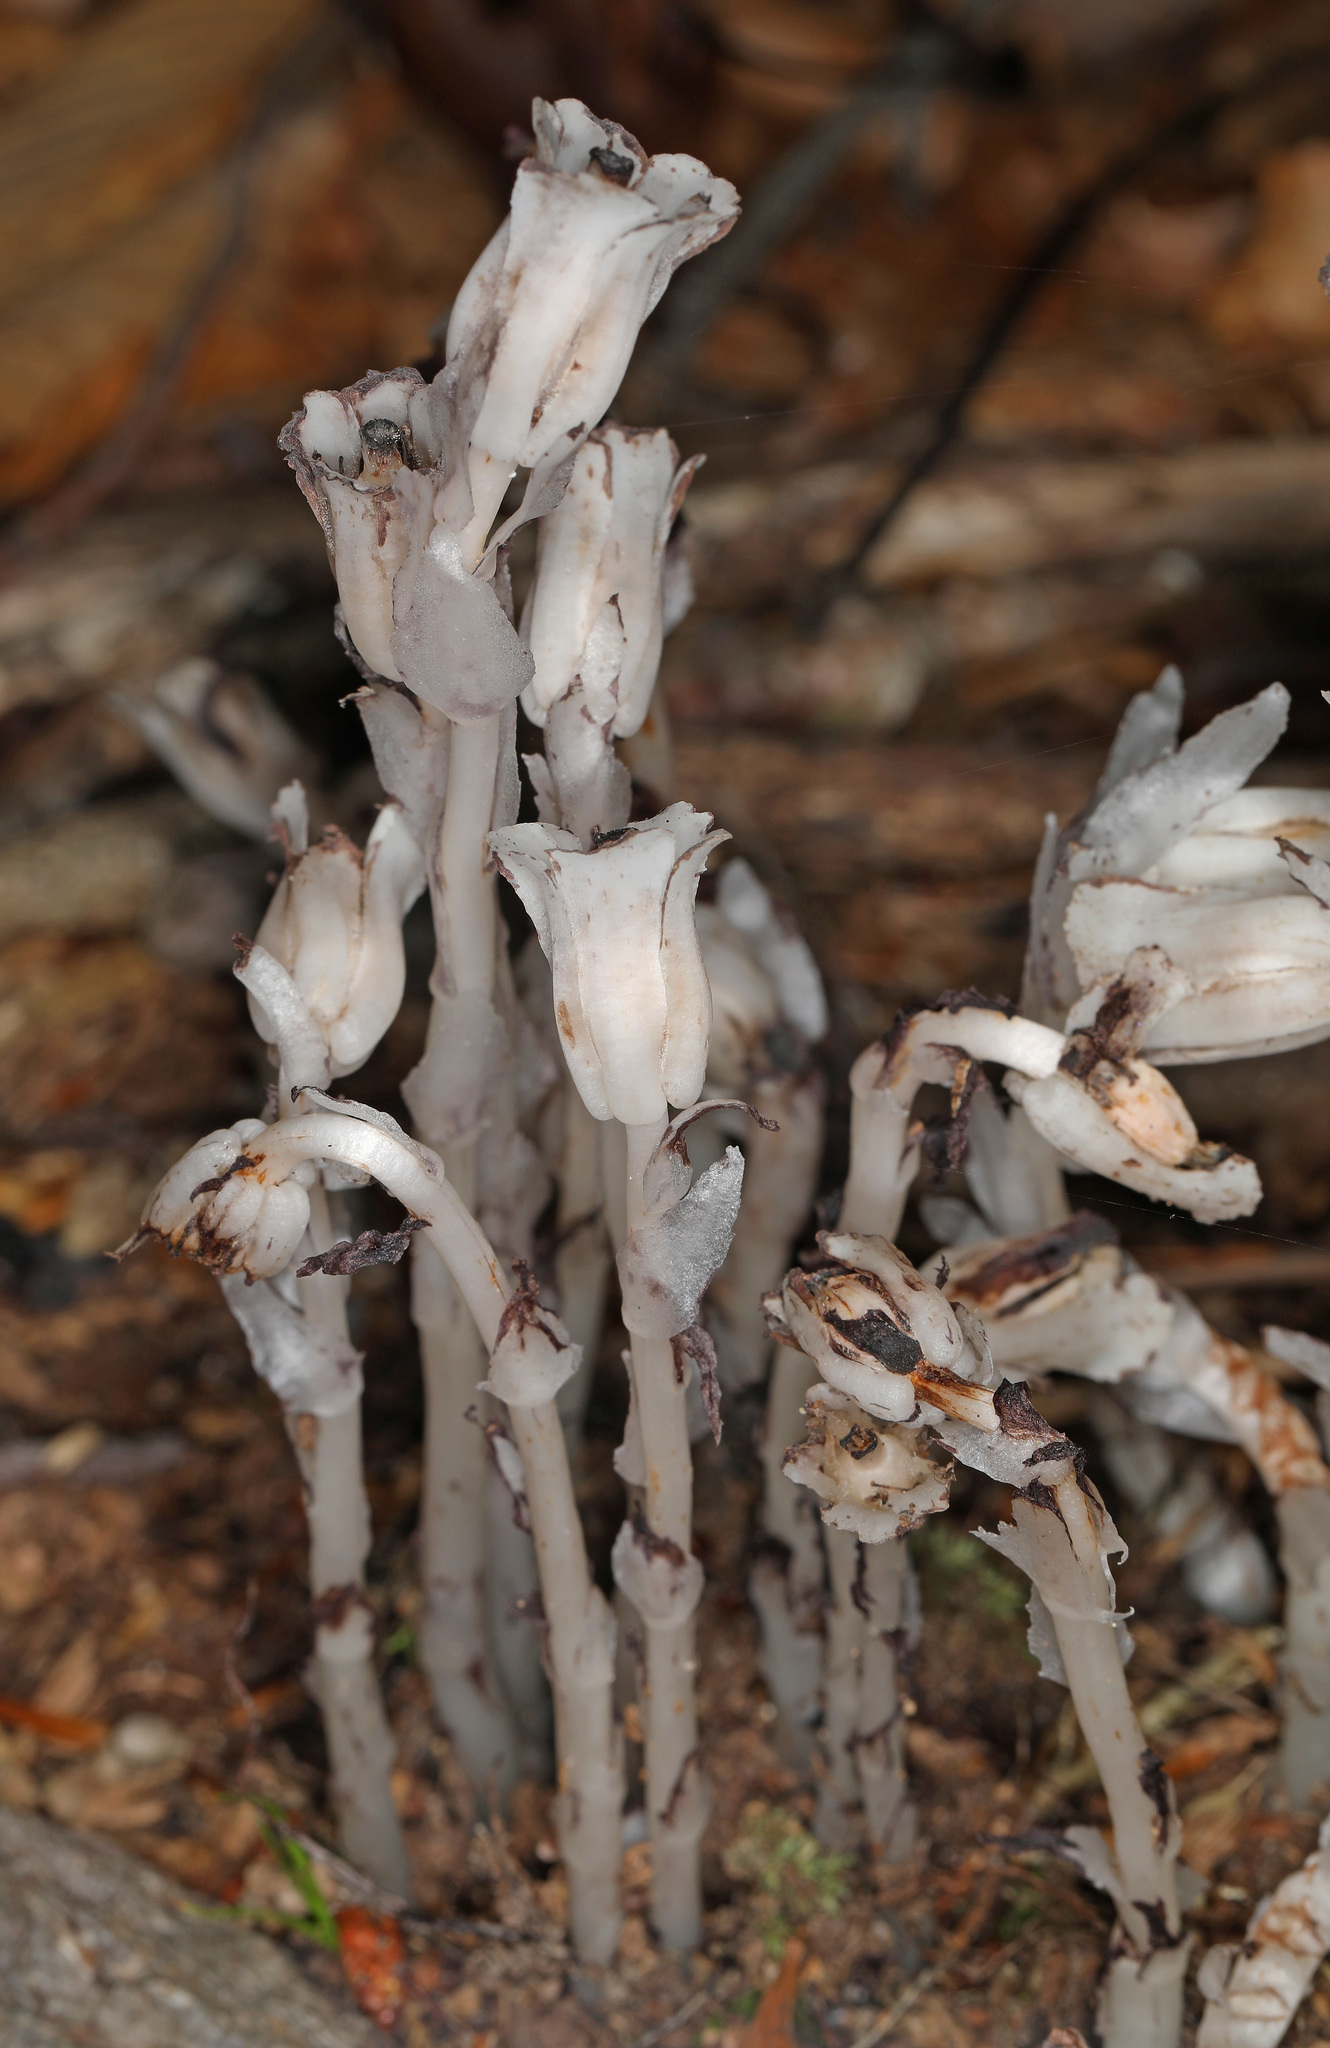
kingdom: Plantae
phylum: Tracheophyta
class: Magnoliopsida
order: Ericales
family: Ericaceae
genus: Monotropa
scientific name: Monotropa uniflora
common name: Convulsion root
